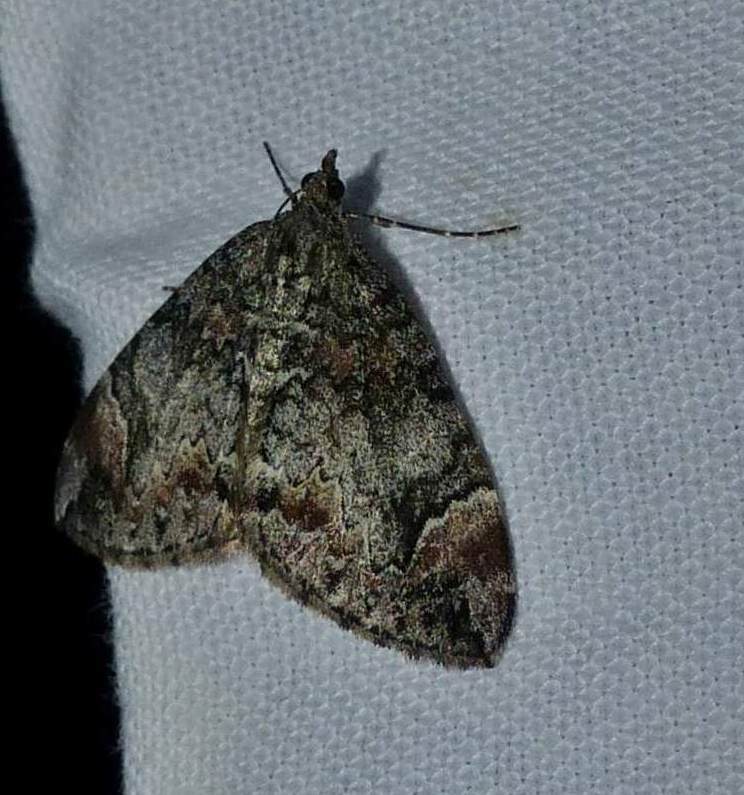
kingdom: Animalia
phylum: Arthropoda
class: Insecta
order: Lepidoptera
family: Geometridae
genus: Dysstroma
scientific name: Dysstroma citrata
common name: Dark marbled carpet
